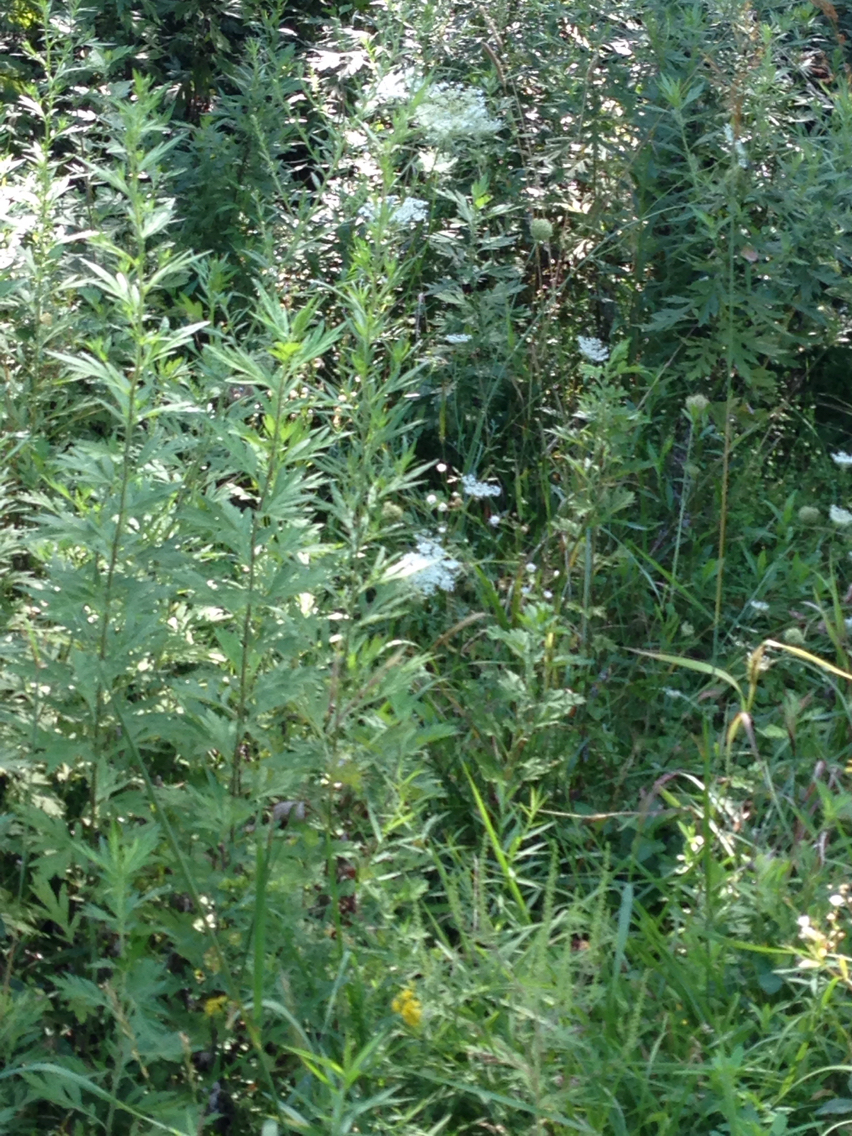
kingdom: Plantae
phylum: Tracheophyta
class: Magnoliopsida
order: Apiales
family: Apiaceae
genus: Daucus
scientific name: Daucus carota
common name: Wild carrot
